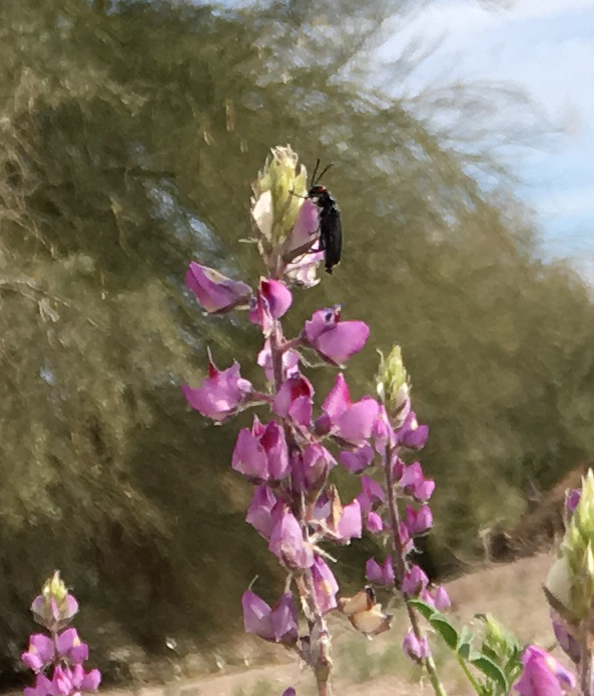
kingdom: Plantae
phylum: Tracheophyta
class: Magnoliopsida
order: Fabales
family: Fabaceae
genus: Lupinus
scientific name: Lupinus arizonicus
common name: Arizona lupine
